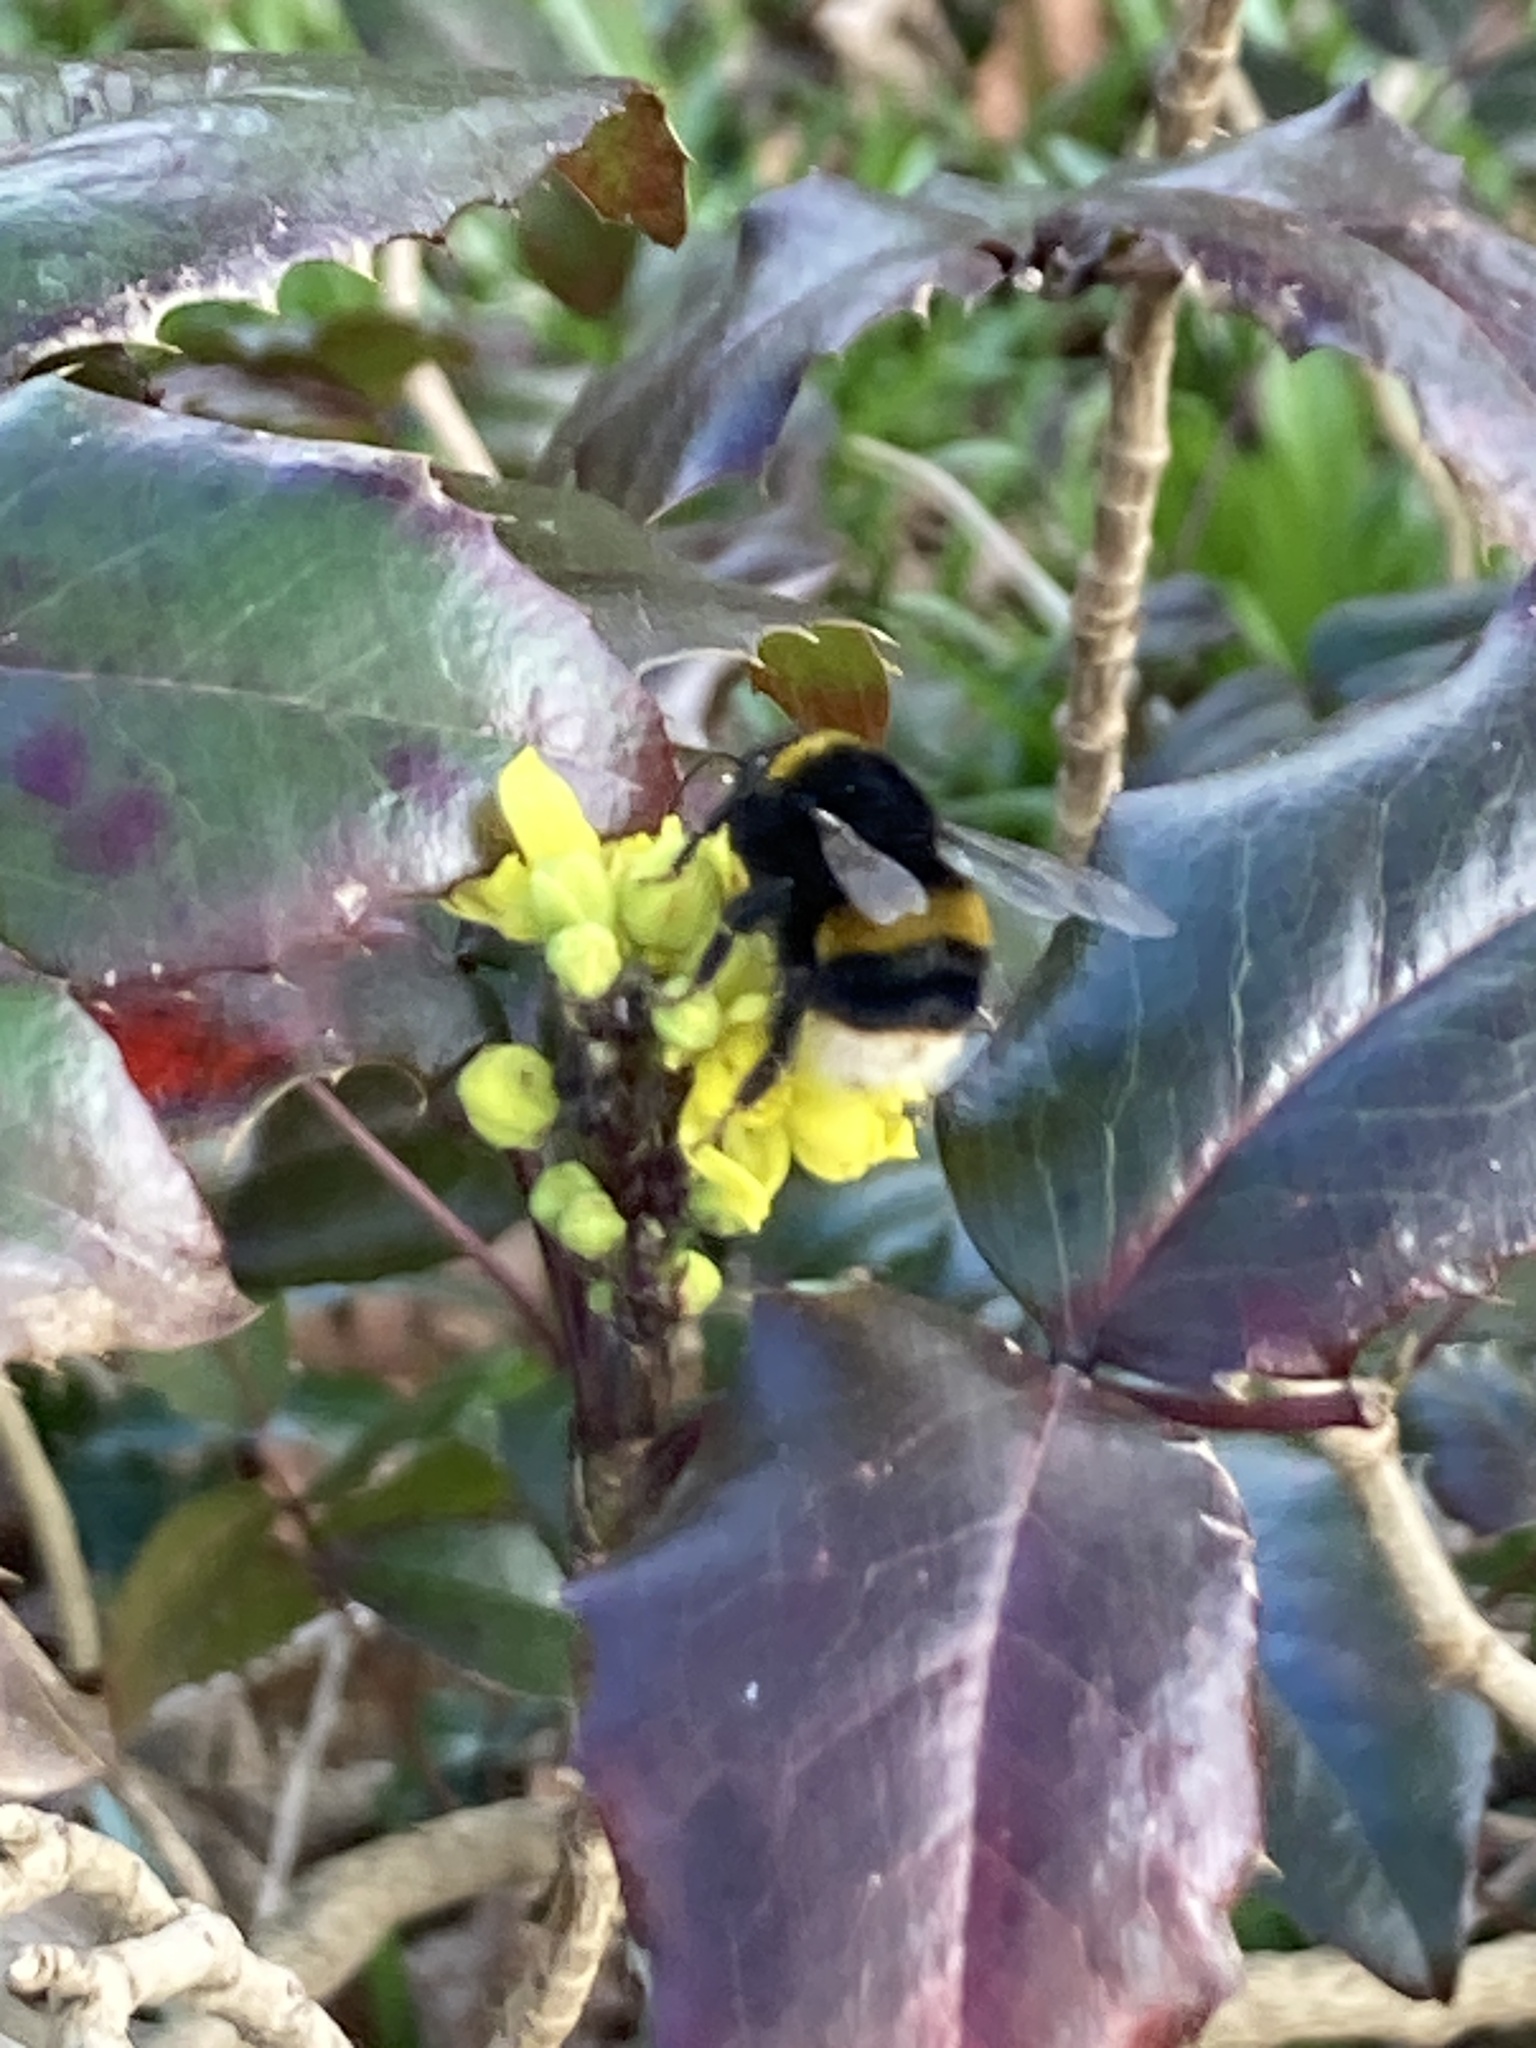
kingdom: Animalia
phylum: Arthropoda
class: Insecta
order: Hymenoptera
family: Apidae
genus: Bombus
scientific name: Bombus terrestris
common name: Buff-tailed bumblebee
